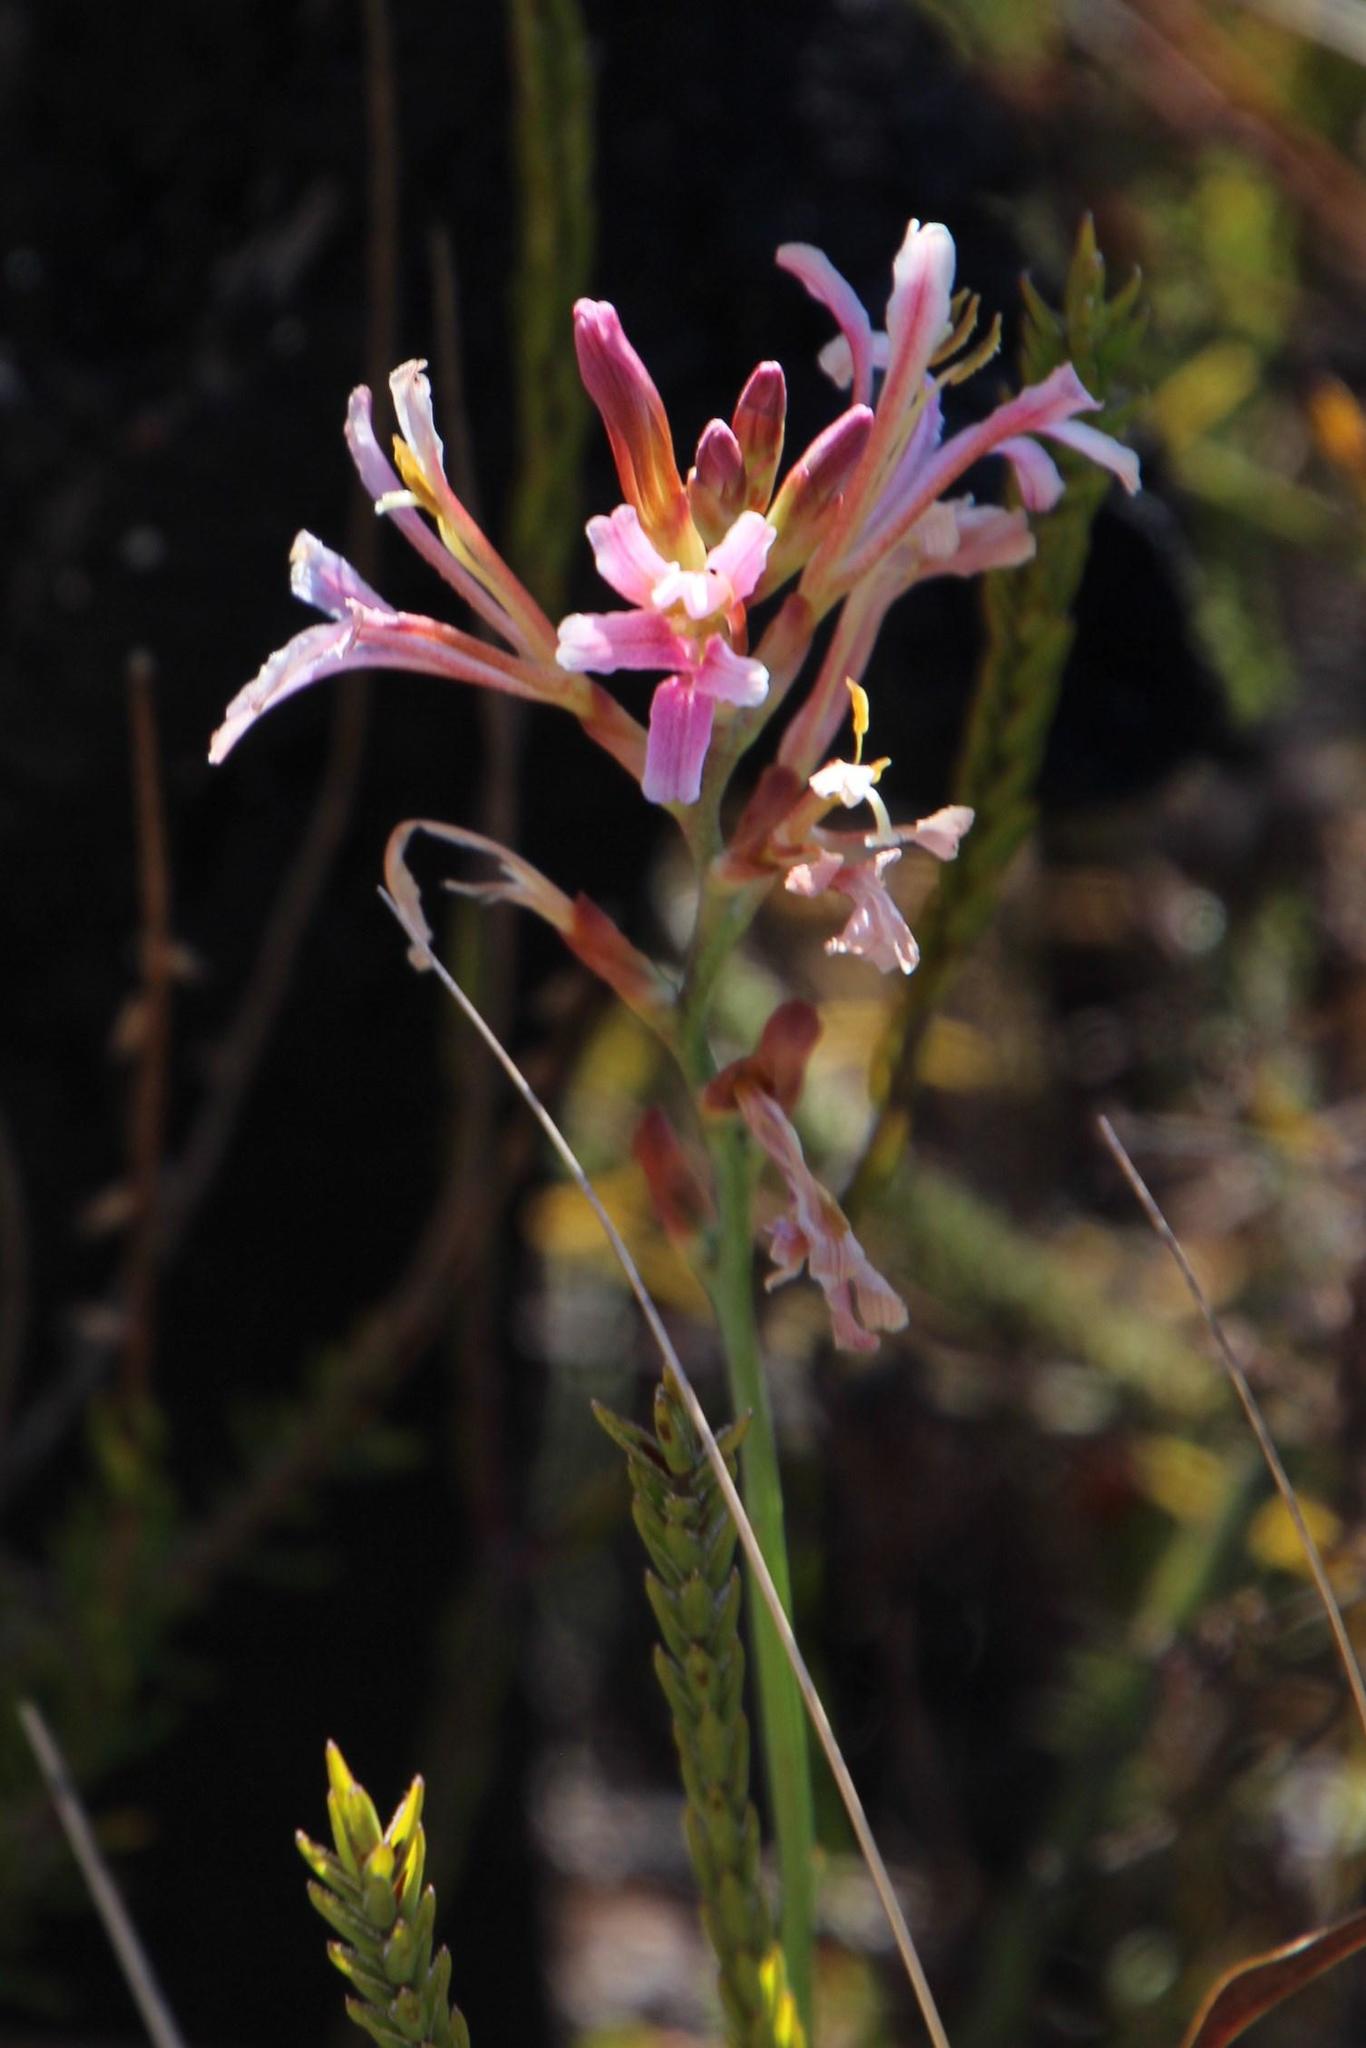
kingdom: Plantae
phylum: Tracheophyta
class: Liliopsida
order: Asparagales
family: Iridaceae
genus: Tritoniopsis
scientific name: Tritoniopsis dodii
